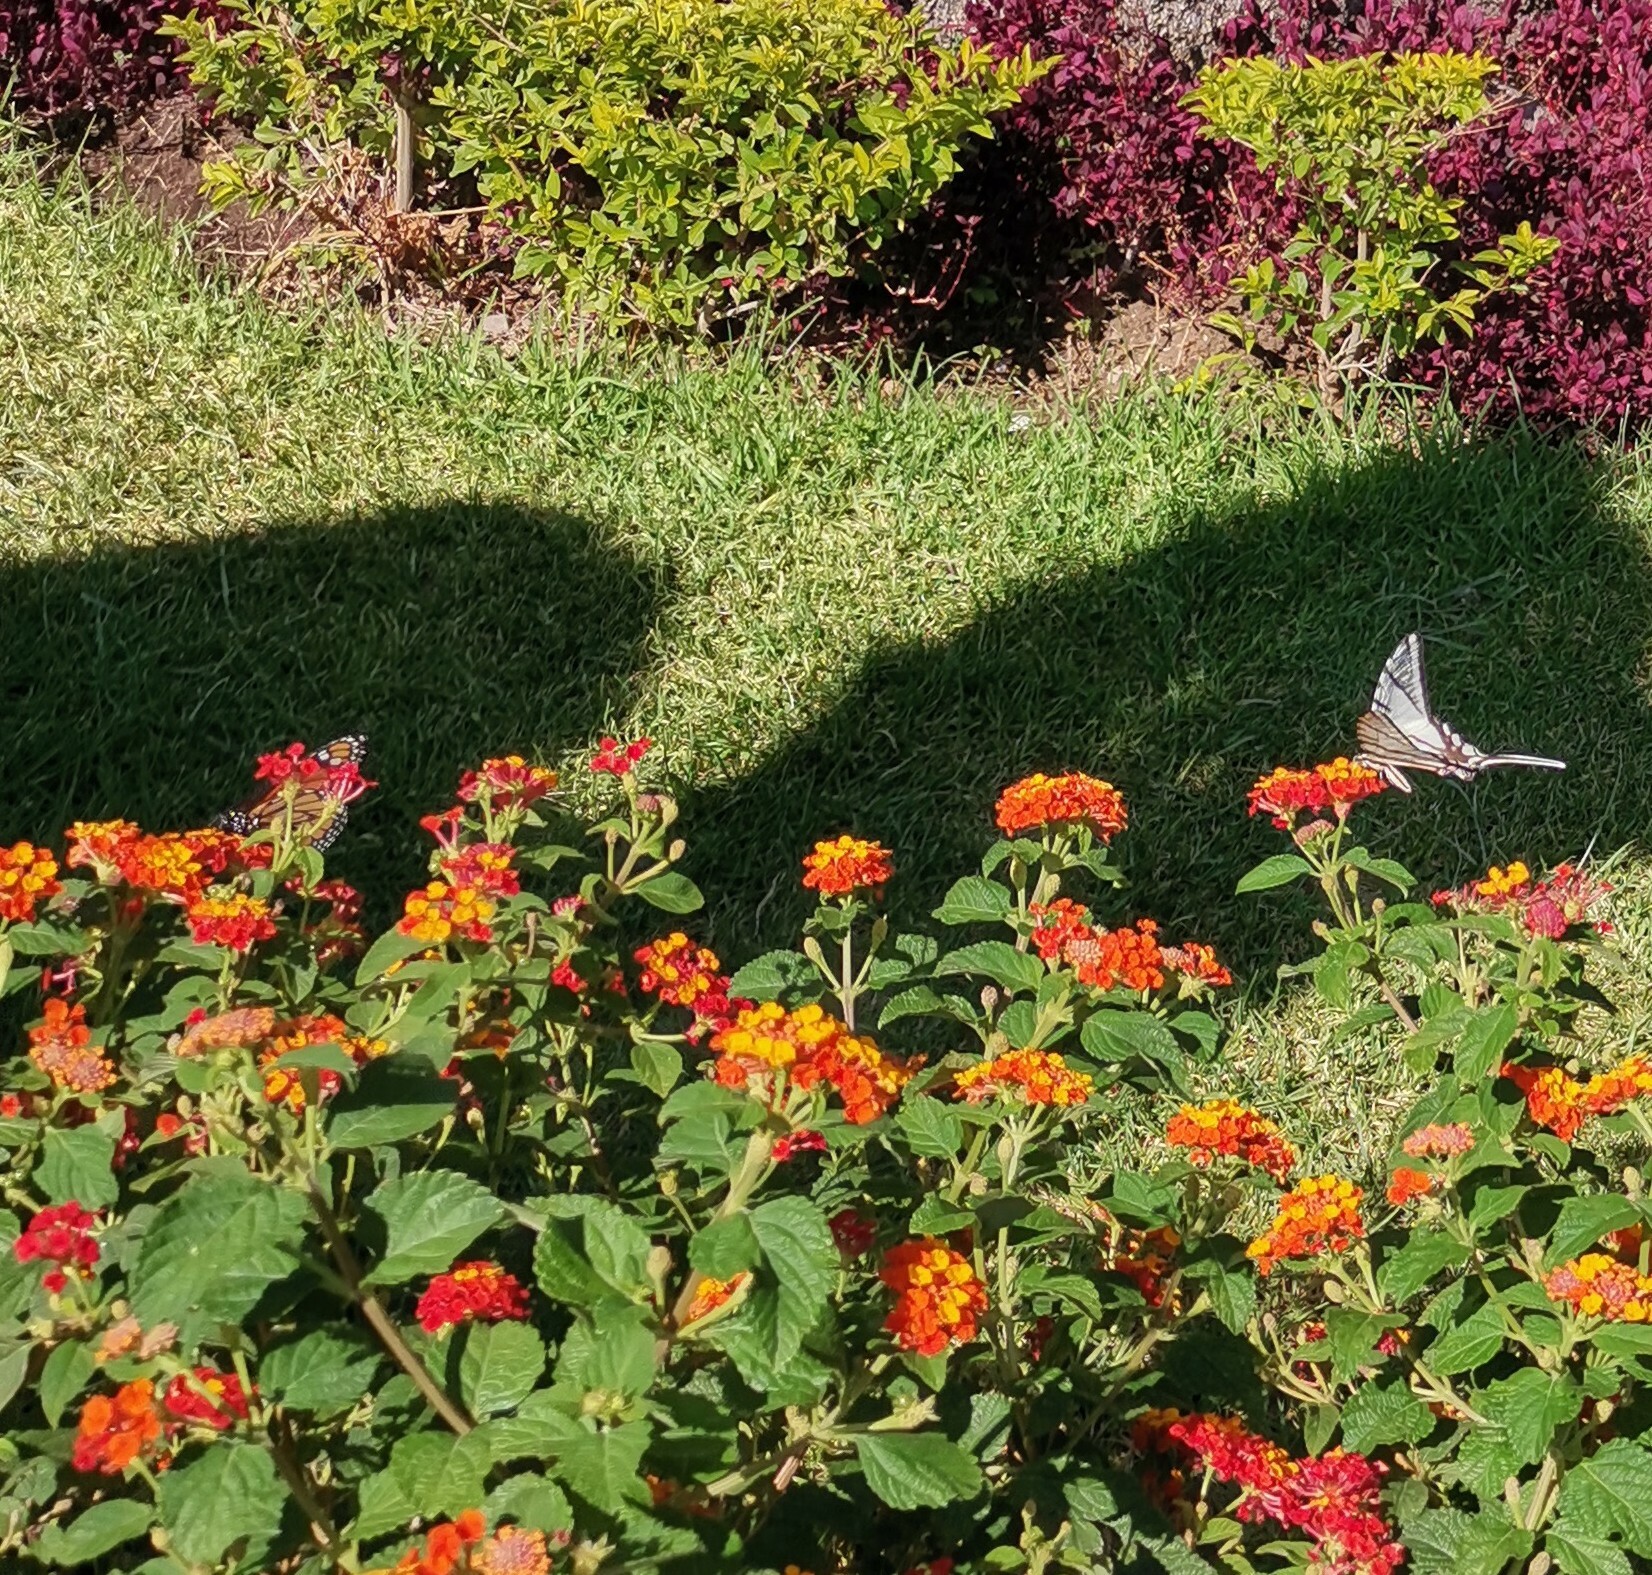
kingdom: Animalia
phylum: Arthropoda
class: Insecta
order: Lepidoptera
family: Nymphalidae
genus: Danaus
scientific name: Danaus plexippus
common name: Monarch
